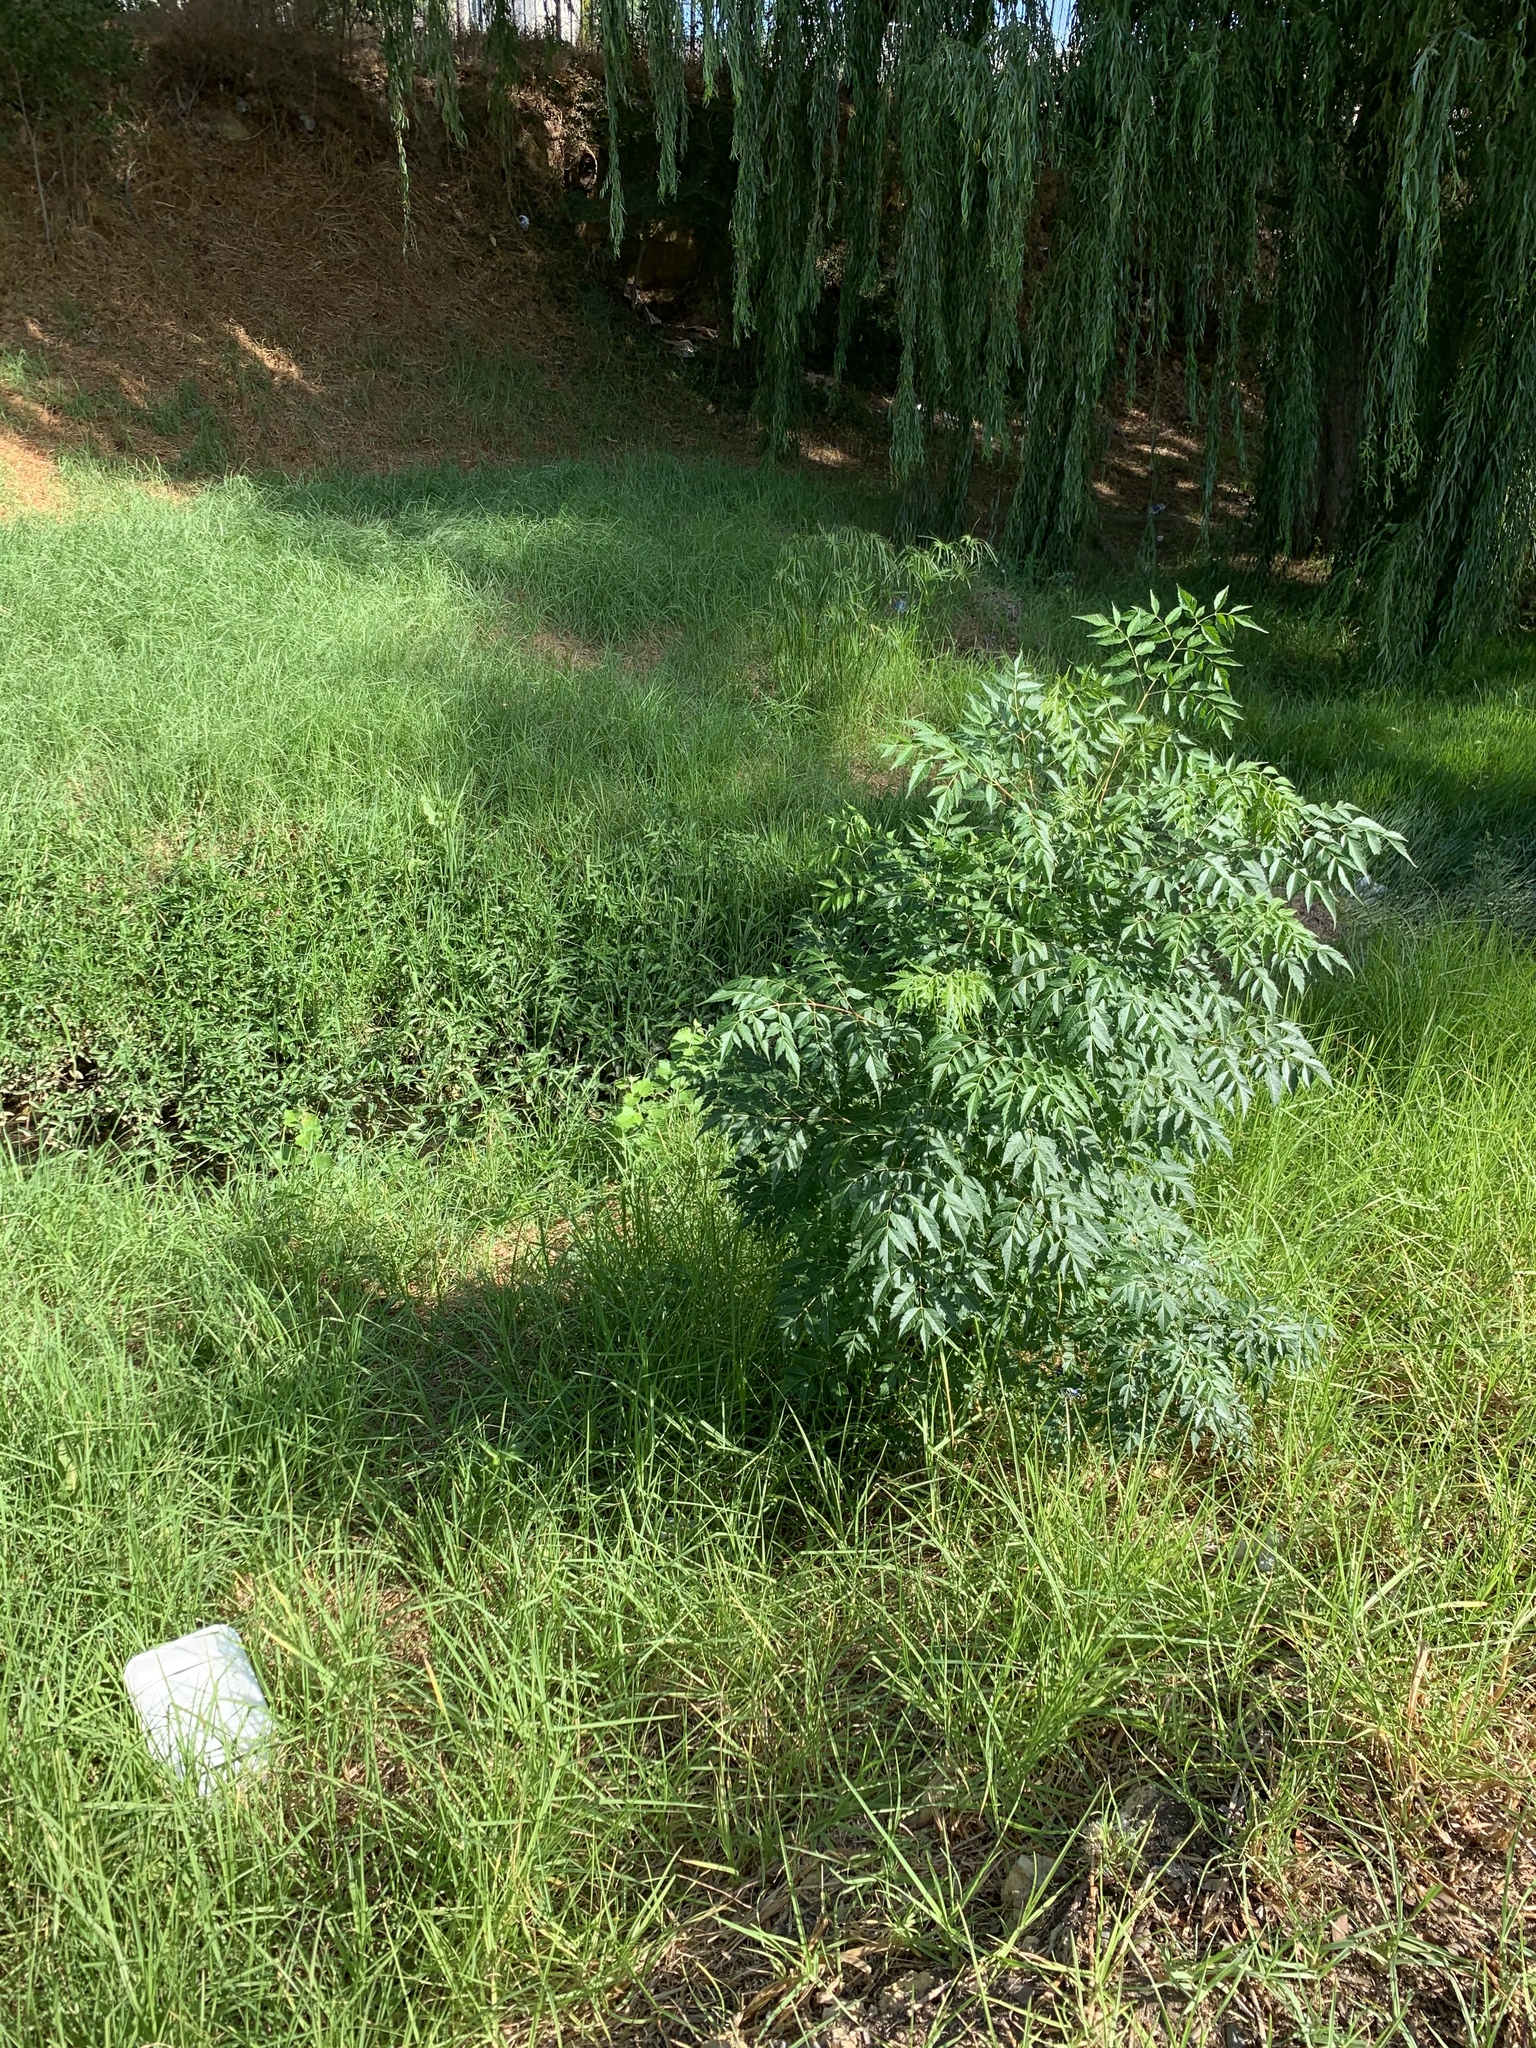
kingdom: Plantae
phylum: Tracheophyta
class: Magnoliopsida
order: Sapindales
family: Meliaceae
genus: Melia
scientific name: Melia azedarach
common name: Chinaberrytree
